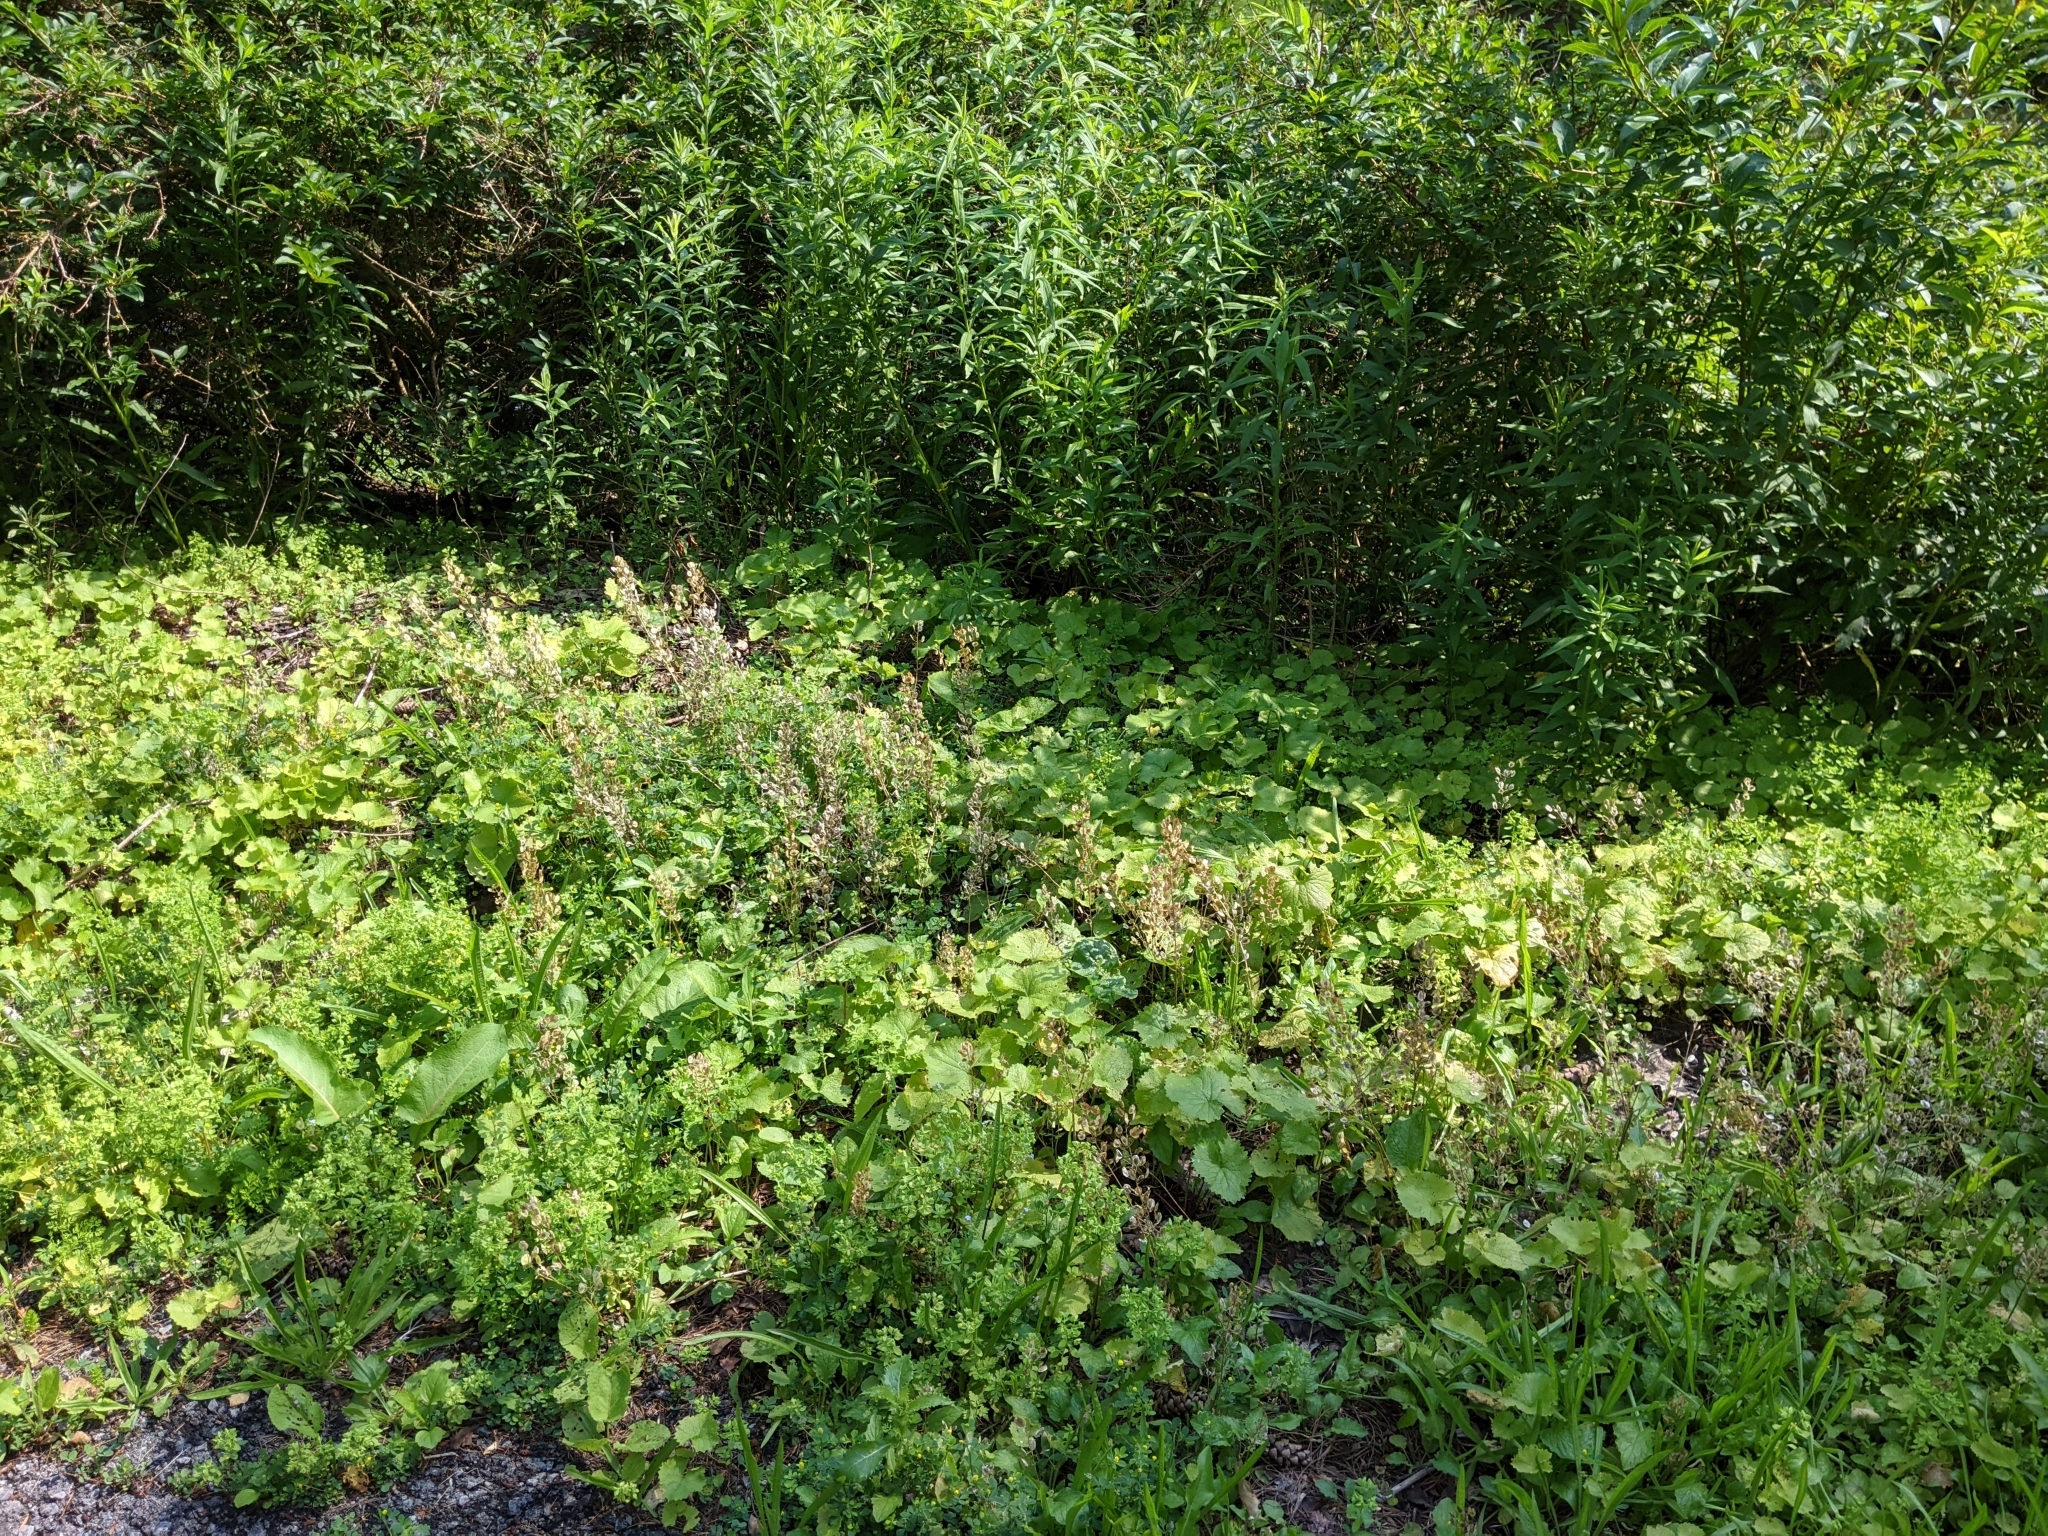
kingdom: Plantae
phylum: Tracheophyta
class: Magnoliopsida
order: Brassicales
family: Brassicaceae
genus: Thlaspi
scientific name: Thlaspi arvense
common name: Field pennycress
